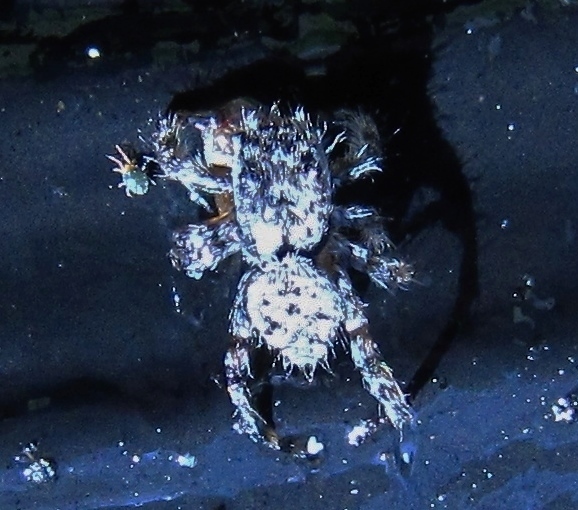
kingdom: Animalia
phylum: Arthropoda
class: Arachnida
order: Araneae
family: Salticidae
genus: Pelegrina
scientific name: Pelegrina galathea
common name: Jumping spiders
